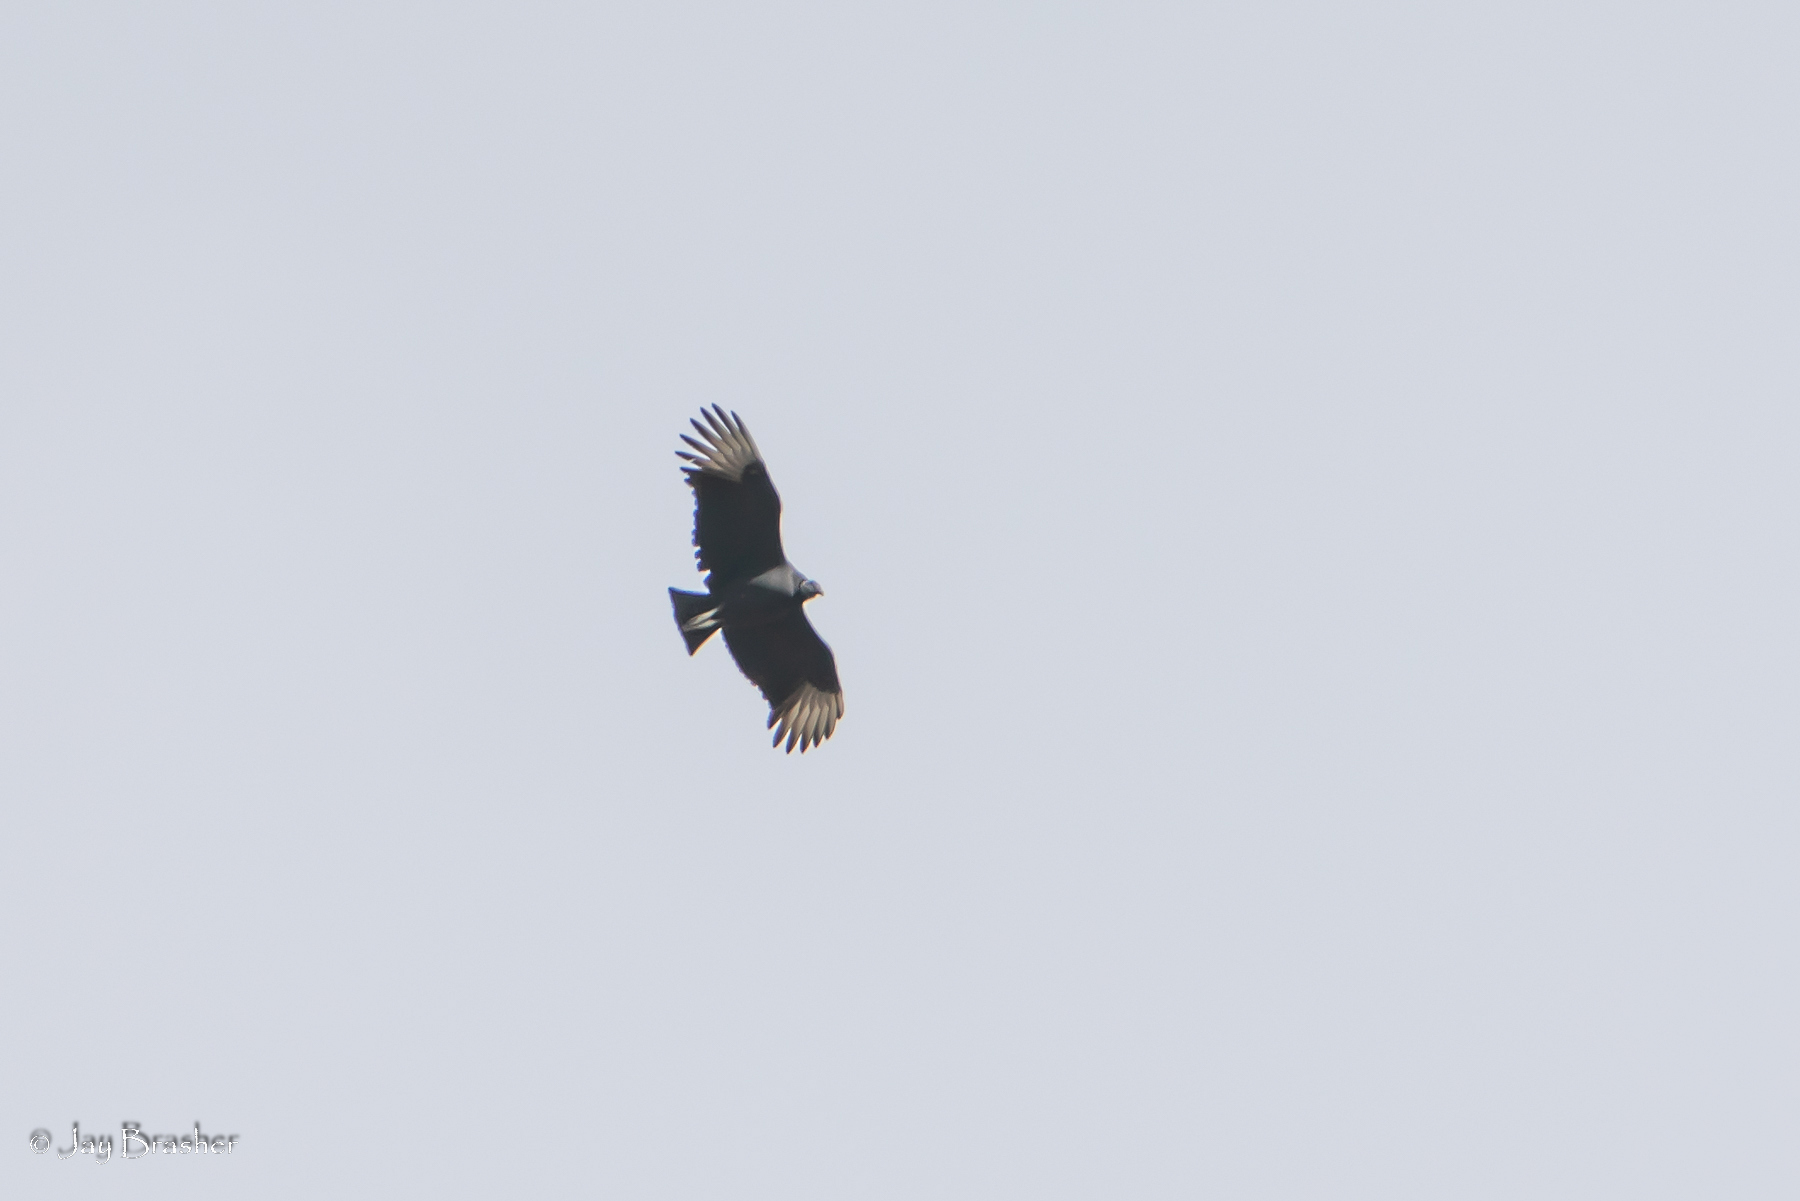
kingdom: Animalia
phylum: Chordata
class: Aves
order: Accipitriformes
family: Cathartidae
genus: Coragyps
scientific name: Coragyps atratus
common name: Black vulture
